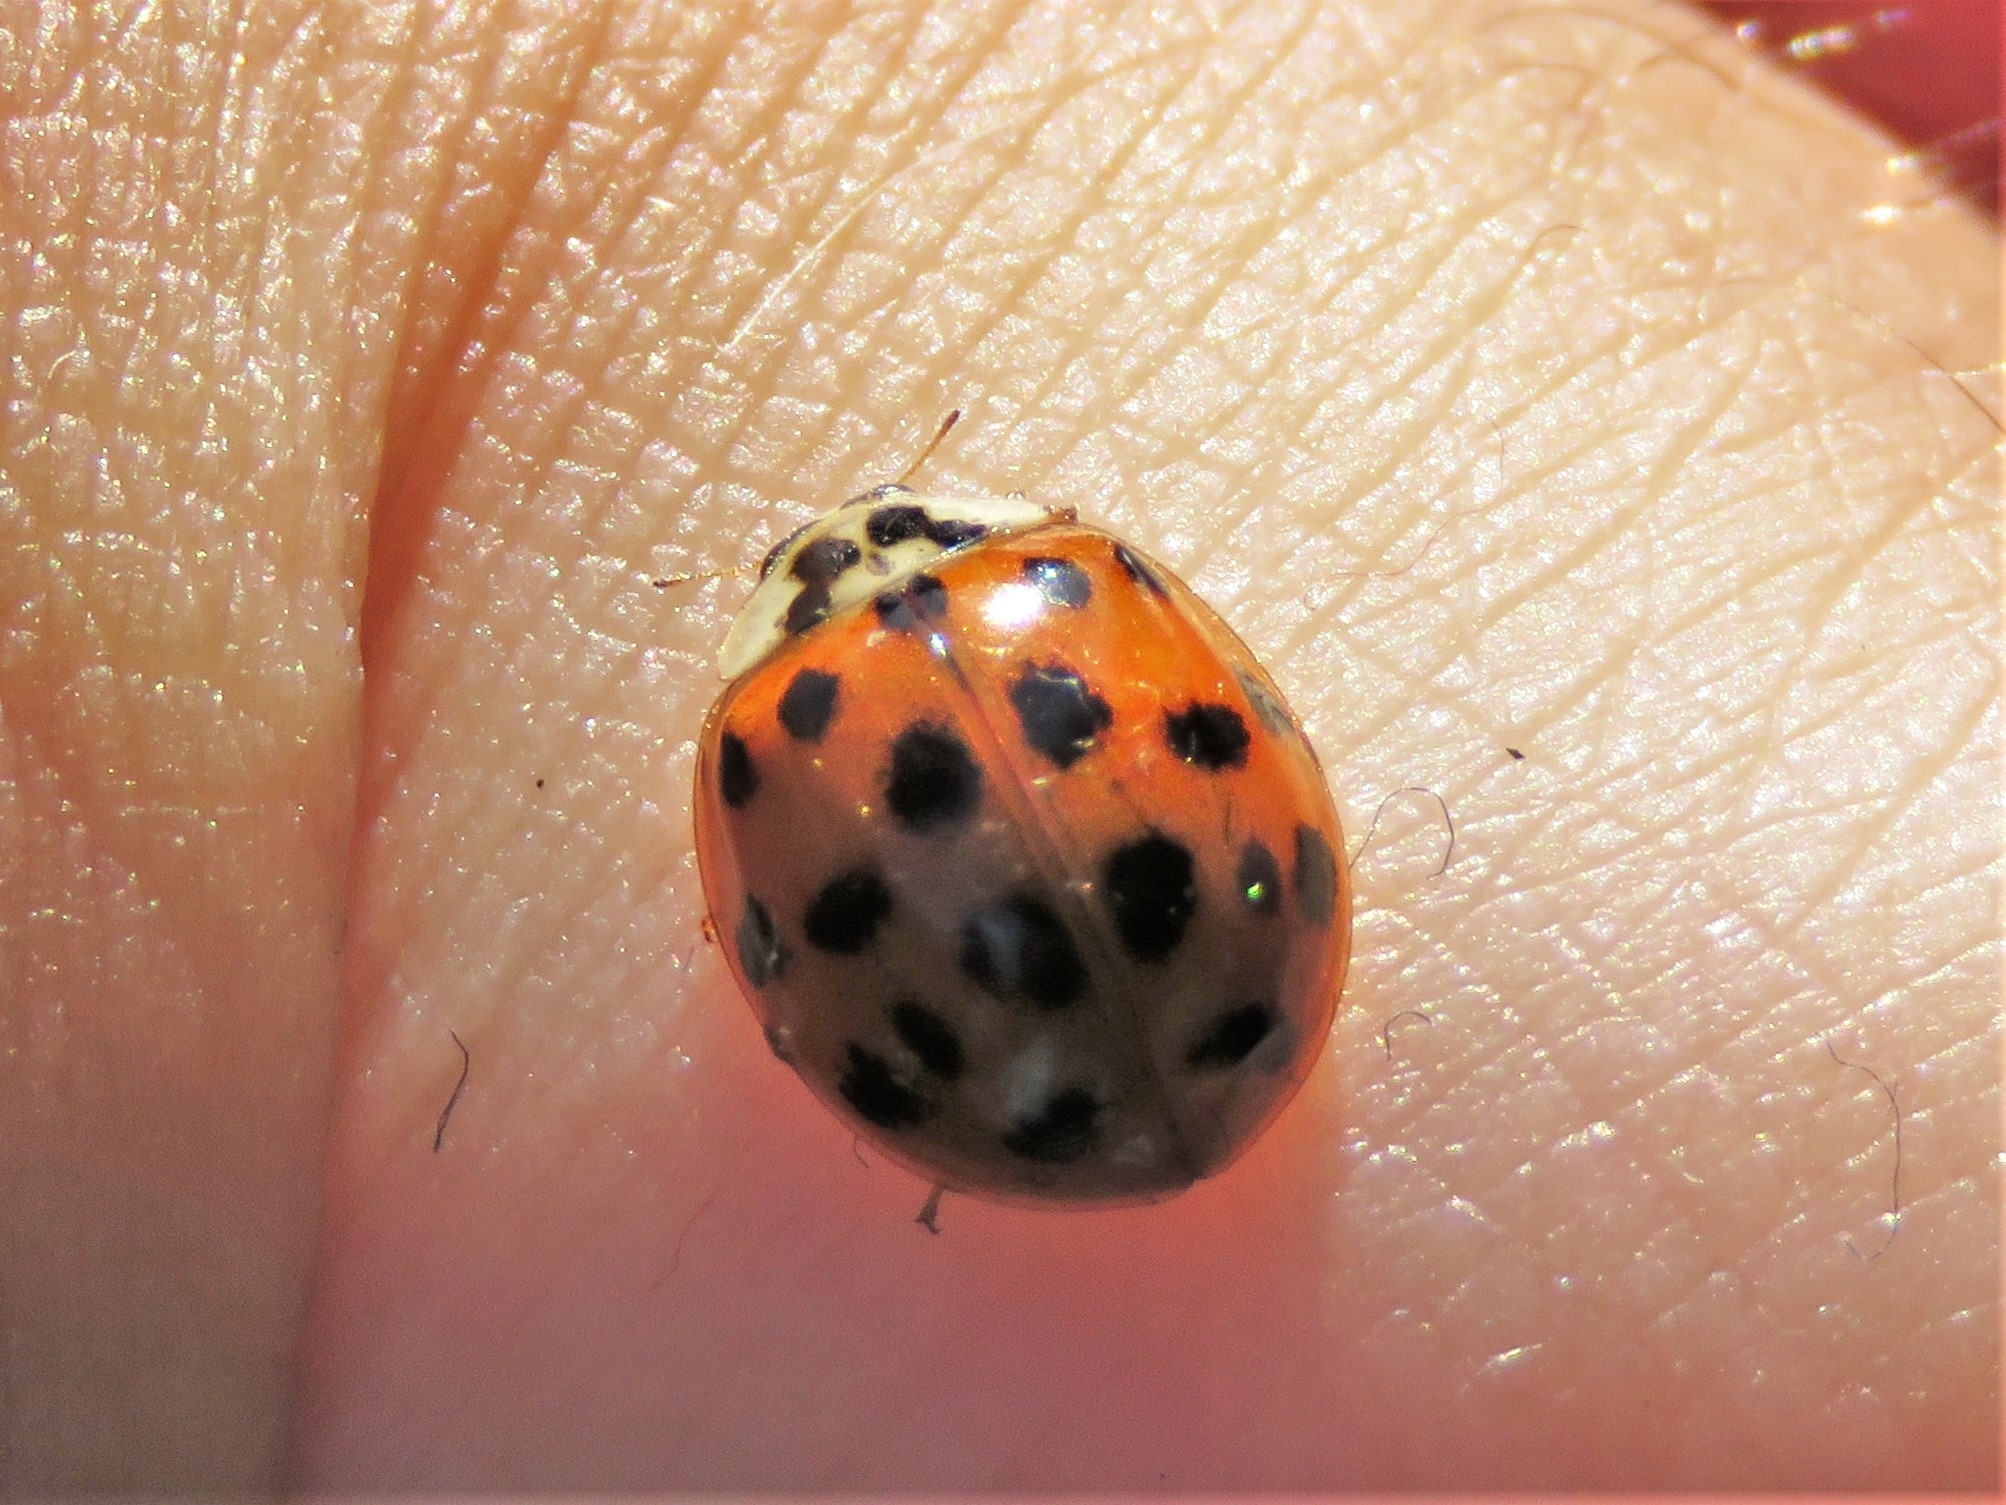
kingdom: Animalia
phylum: Arthropoda
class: Insecta
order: Coleoptera
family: Coccinellidae
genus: Harmonia
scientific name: Harmonia axyridis
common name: Harlequin ladybird
